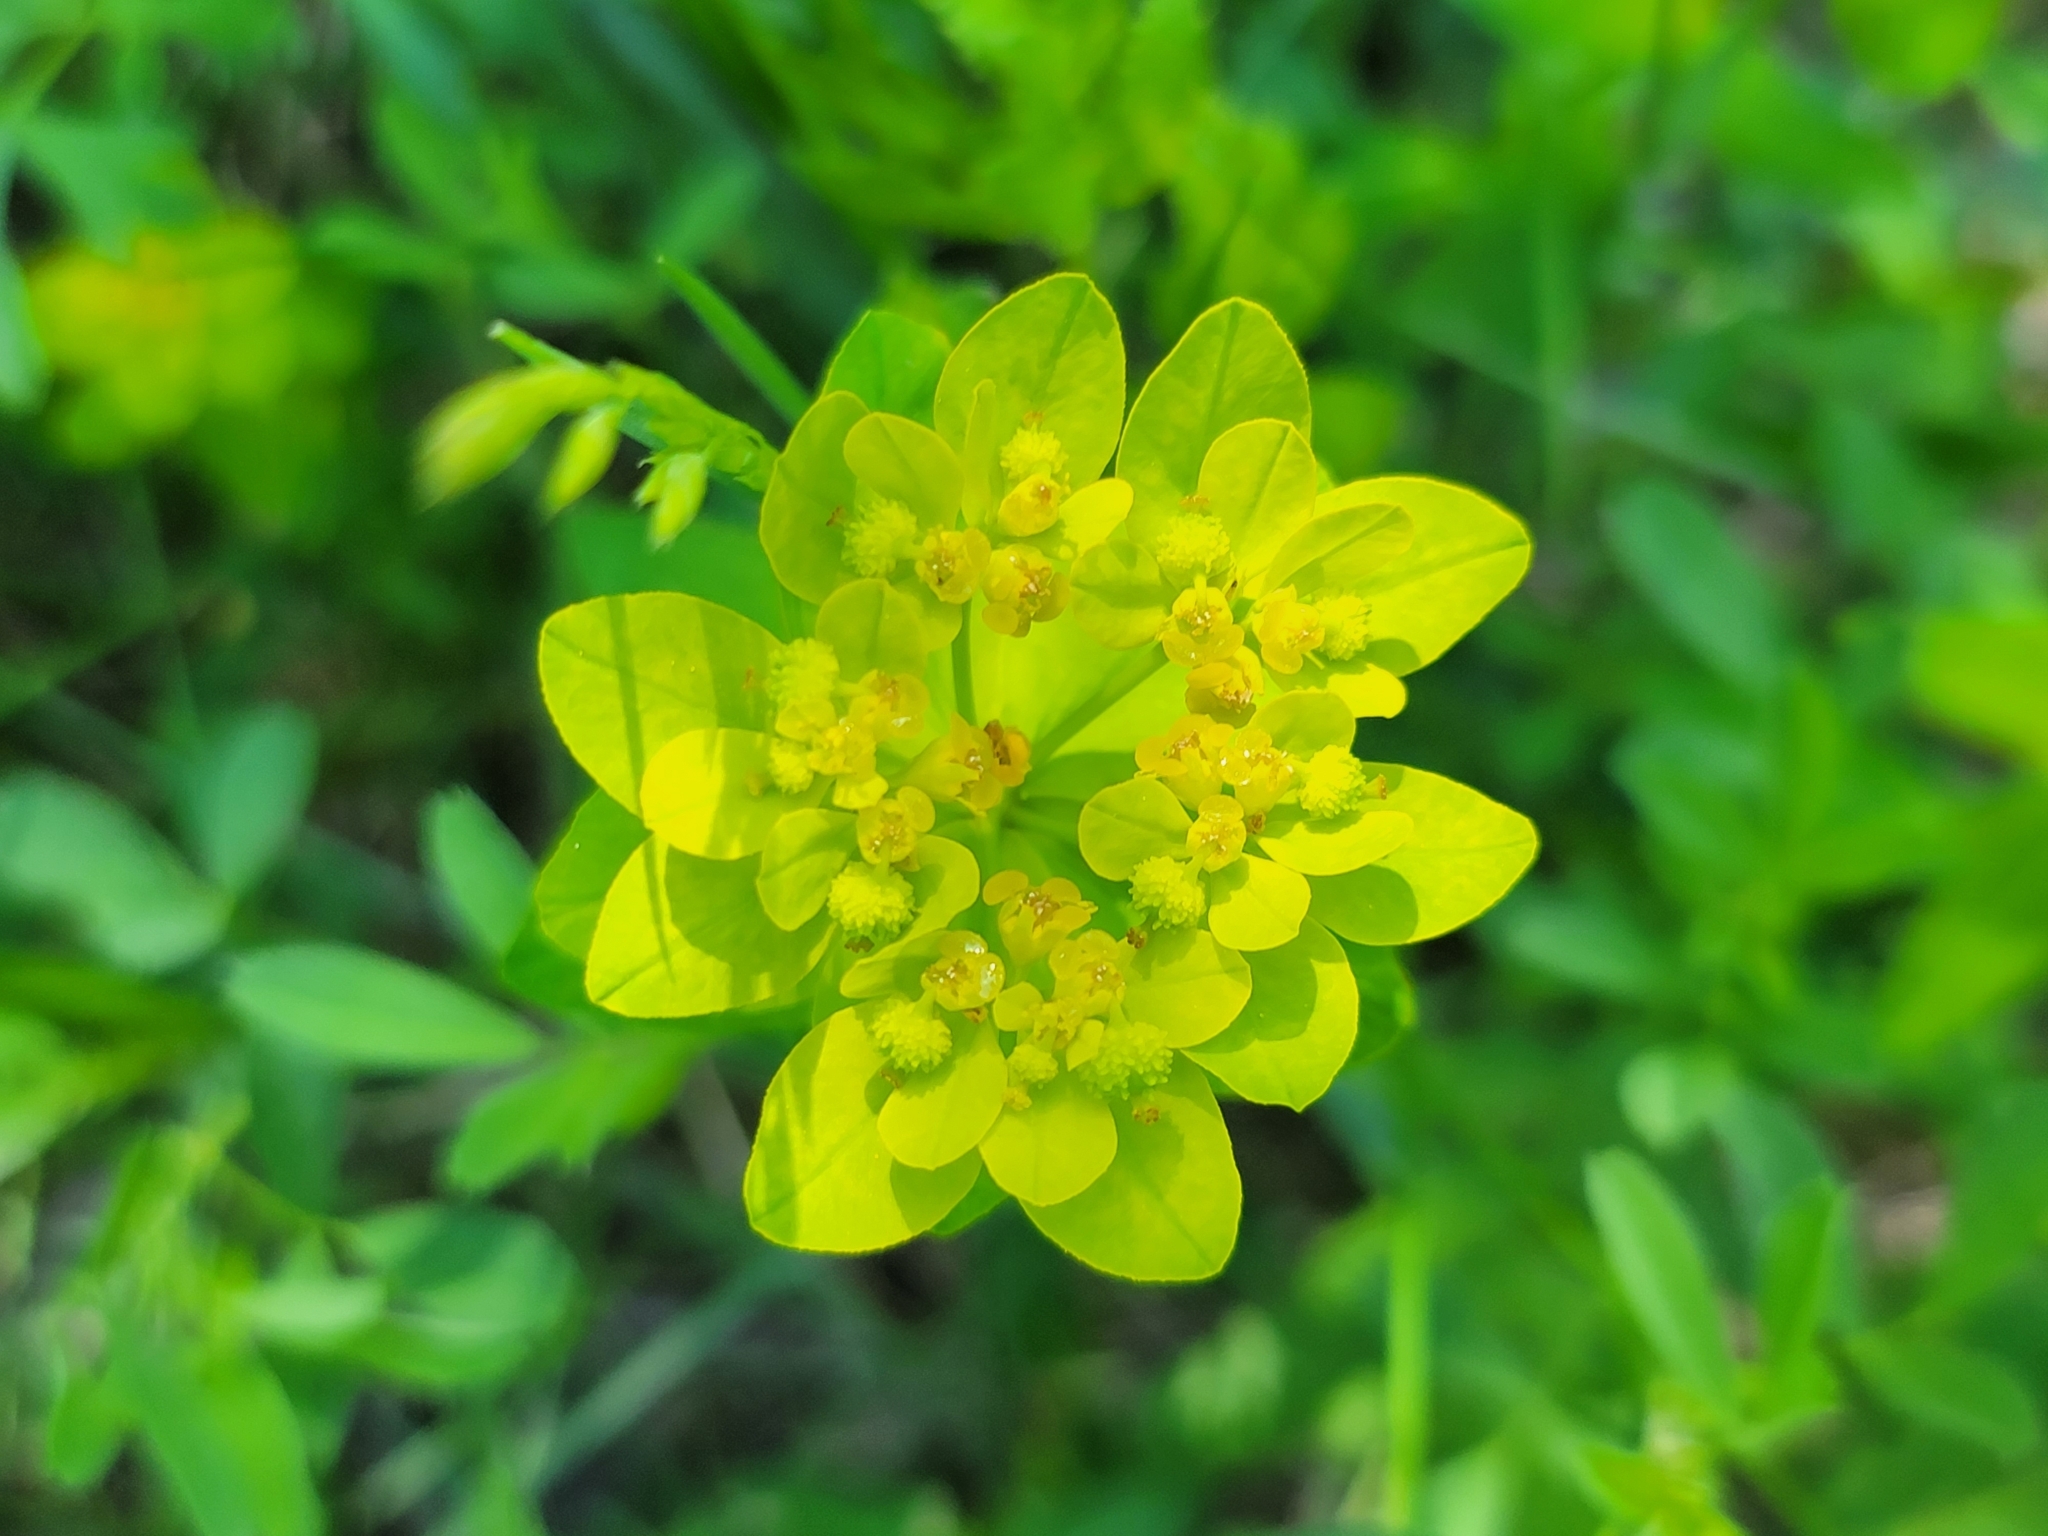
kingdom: Plantae
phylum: Tracheophyta
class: Magnoliopsida
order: Malpighiales
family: Euphorbiaceae
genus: Euphorbia
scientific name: Euphorbia verrucosa
